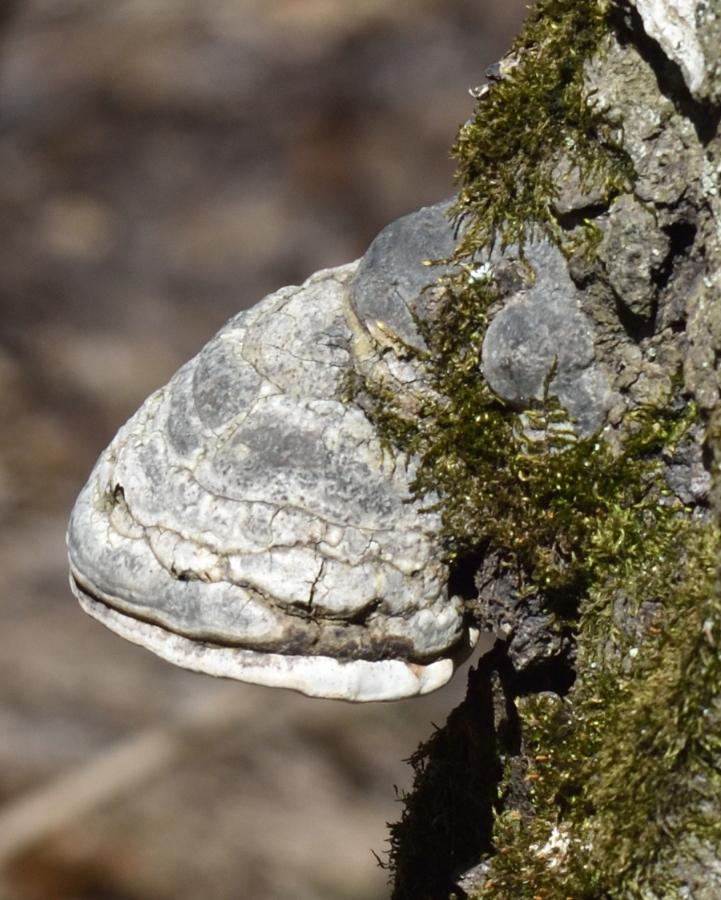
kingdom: Fungi
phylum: Basidiomycota
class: Agaricomycetes
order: Polyporales
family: Polyporaceae
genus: Fomes
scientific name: Fomes fomentarius
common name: Hoof fungus
